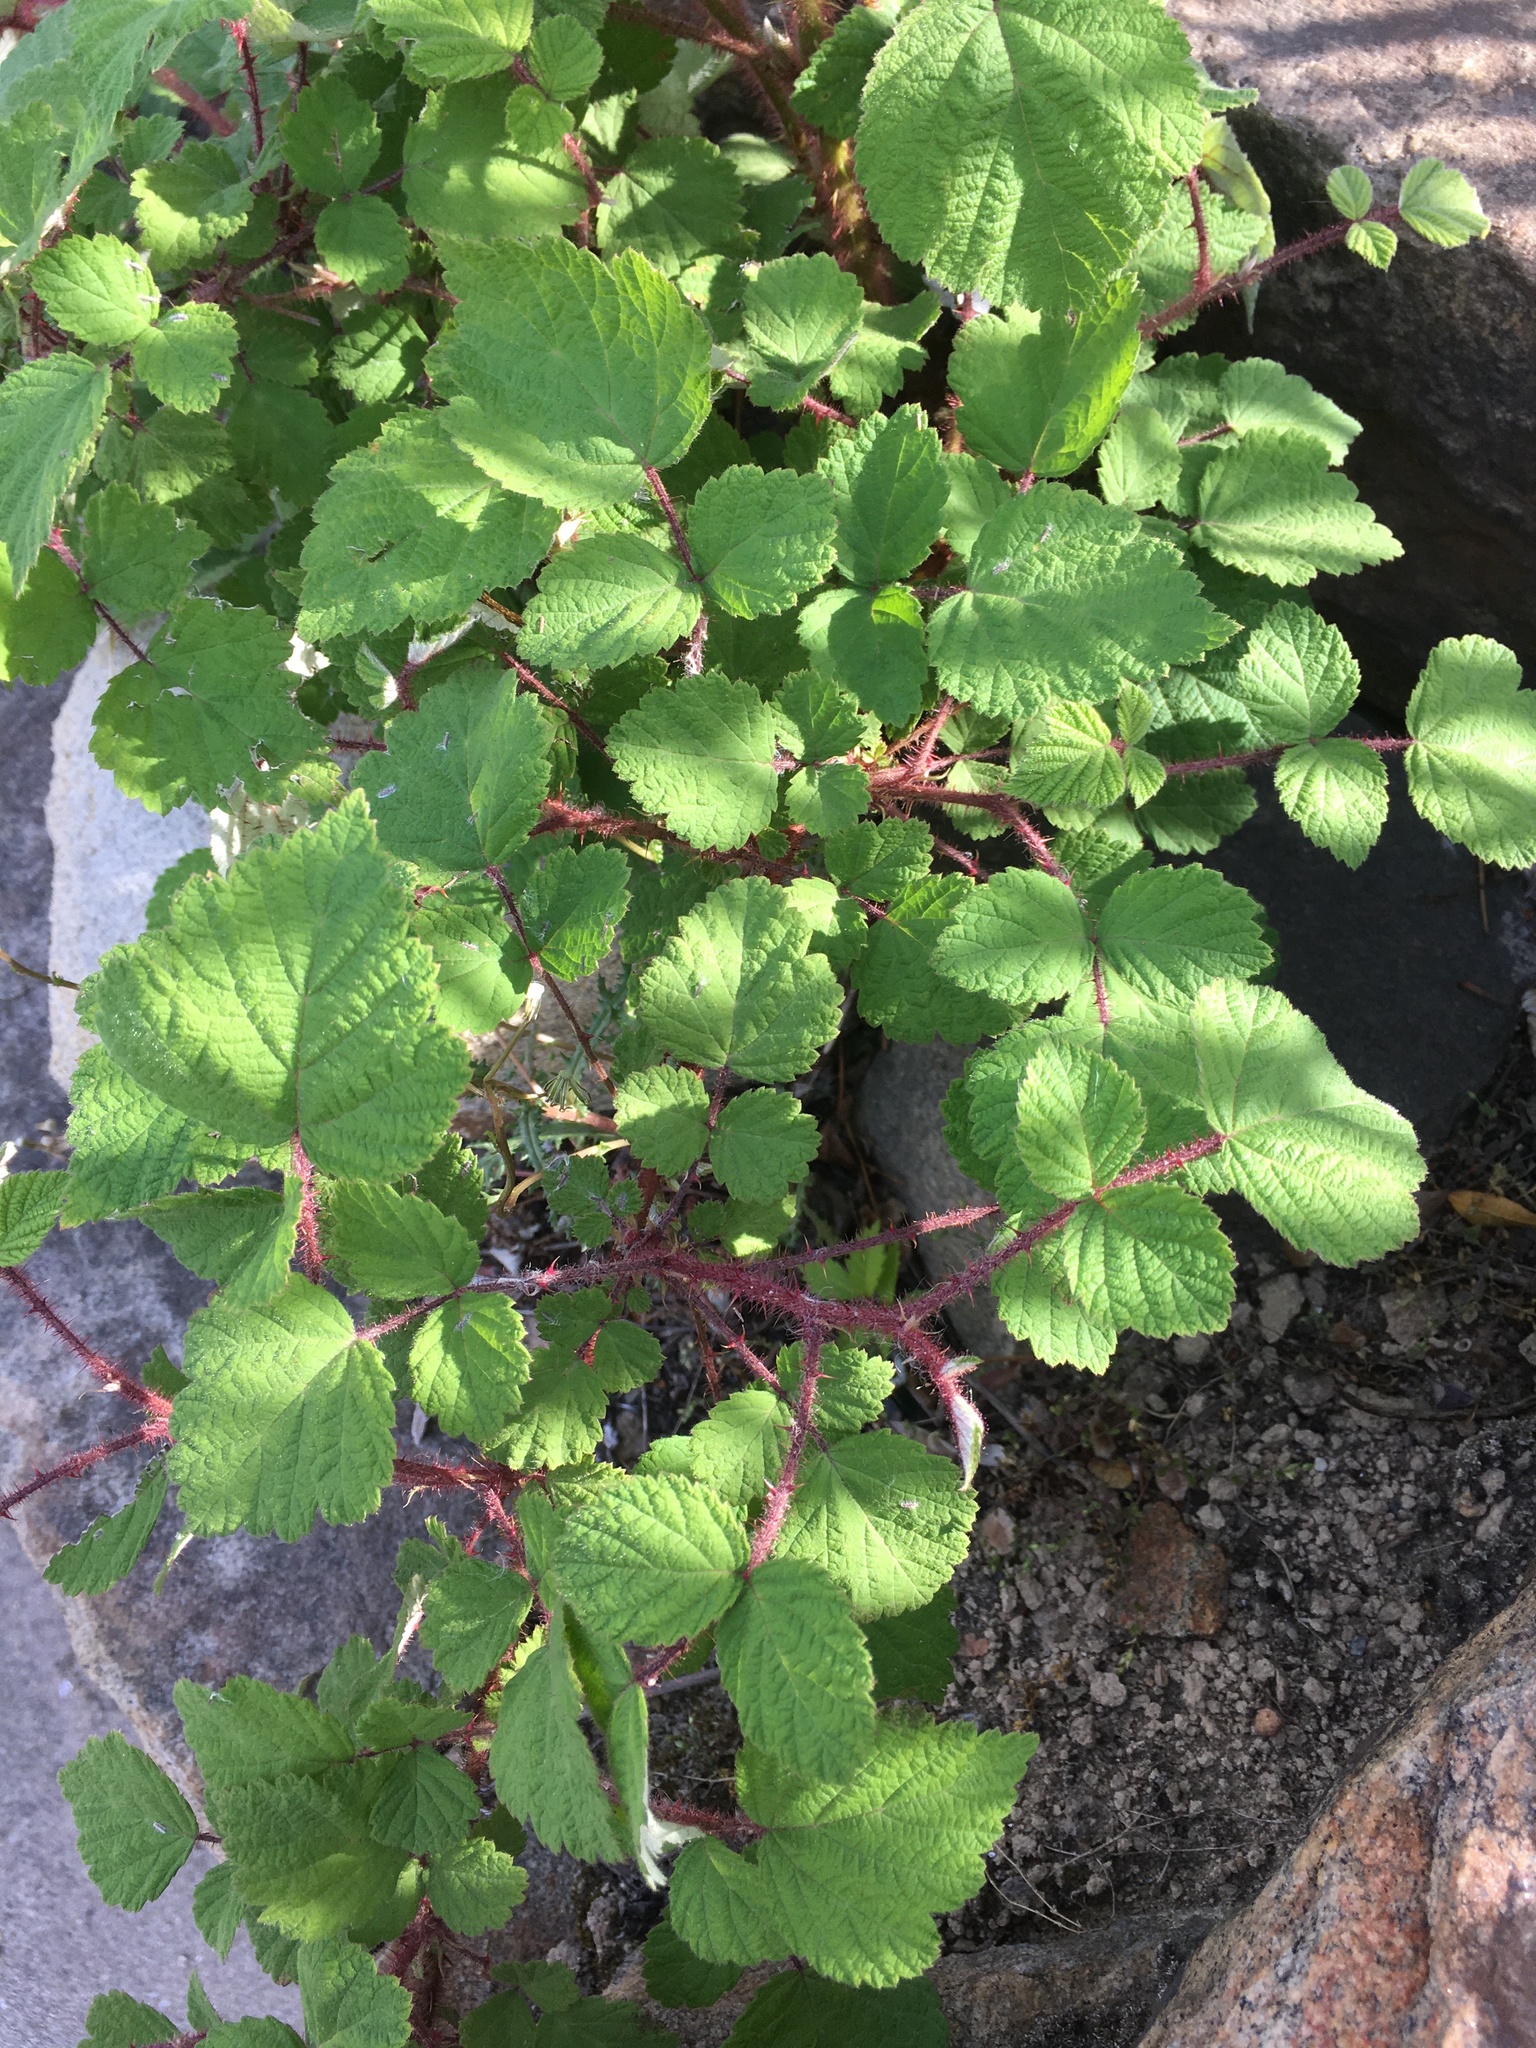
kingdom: Plantae
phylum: Tracheophyta
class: Magnoliopsida
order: Rosales
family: Rosaceae
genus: Rubus
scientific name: Rubus phoenicolasius
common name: Japanese wineberry
